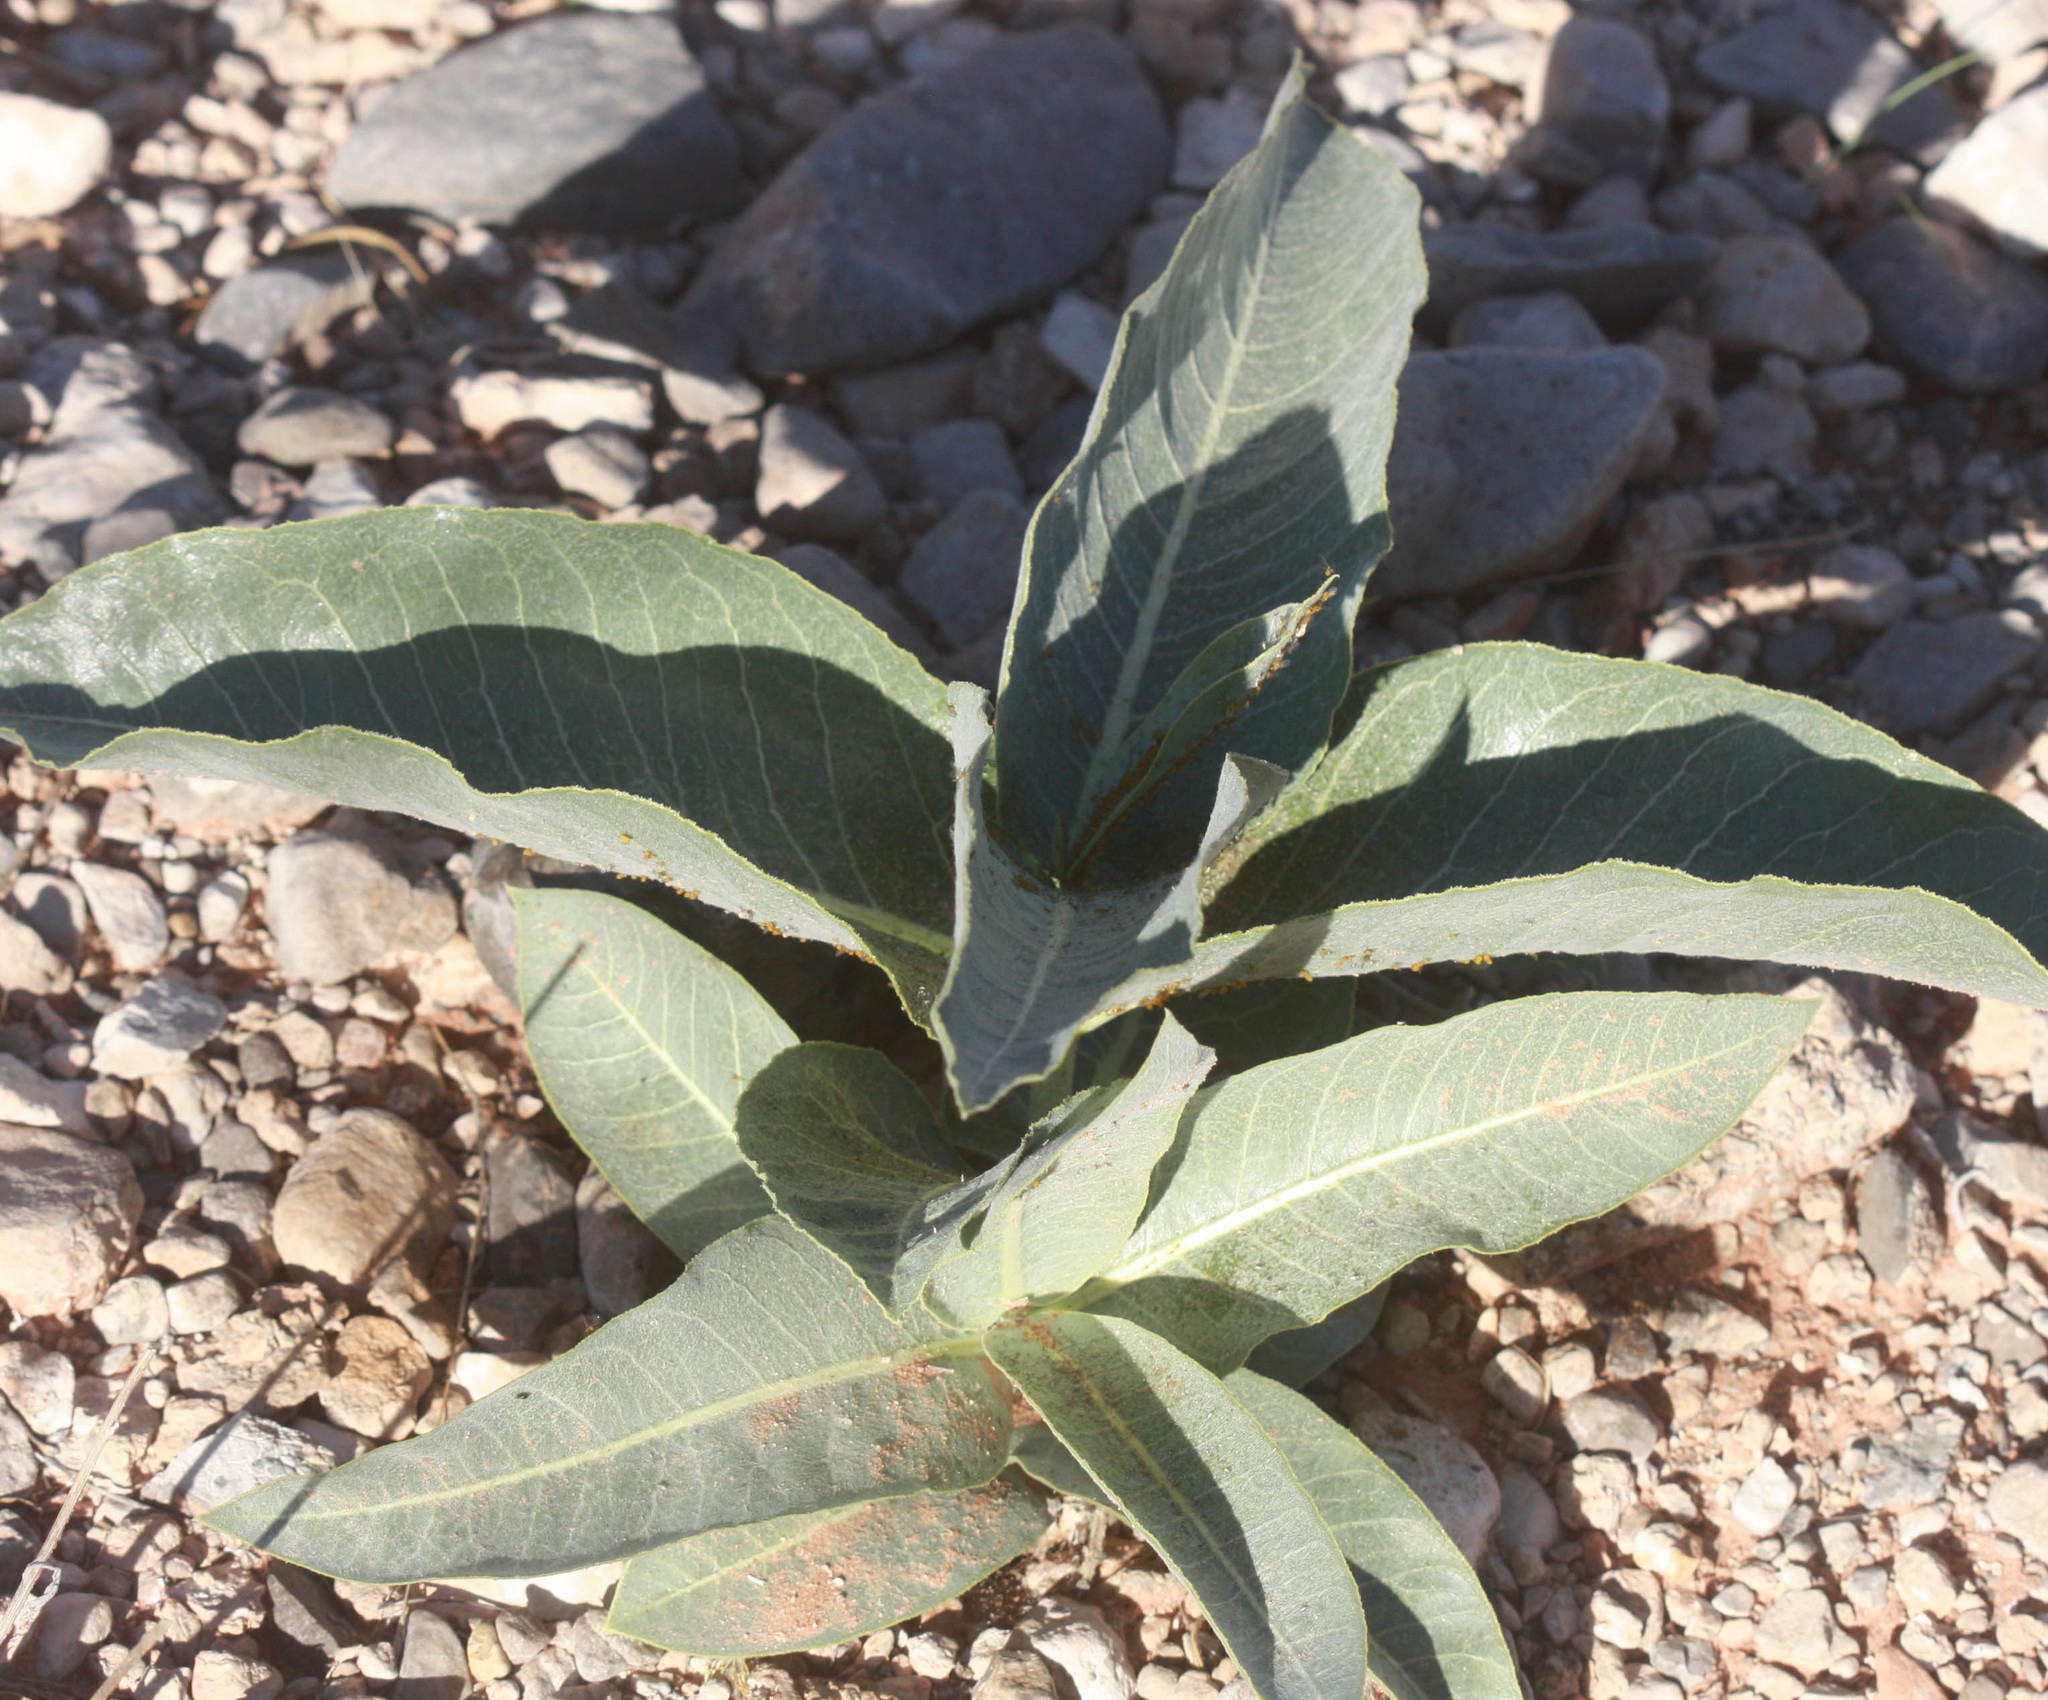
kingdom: Plantae
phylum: Tracheophyta
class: Magnoliopsida
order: Gentianales
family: Apocynaceae
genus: Asclepias
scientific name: Asclepias erosa
